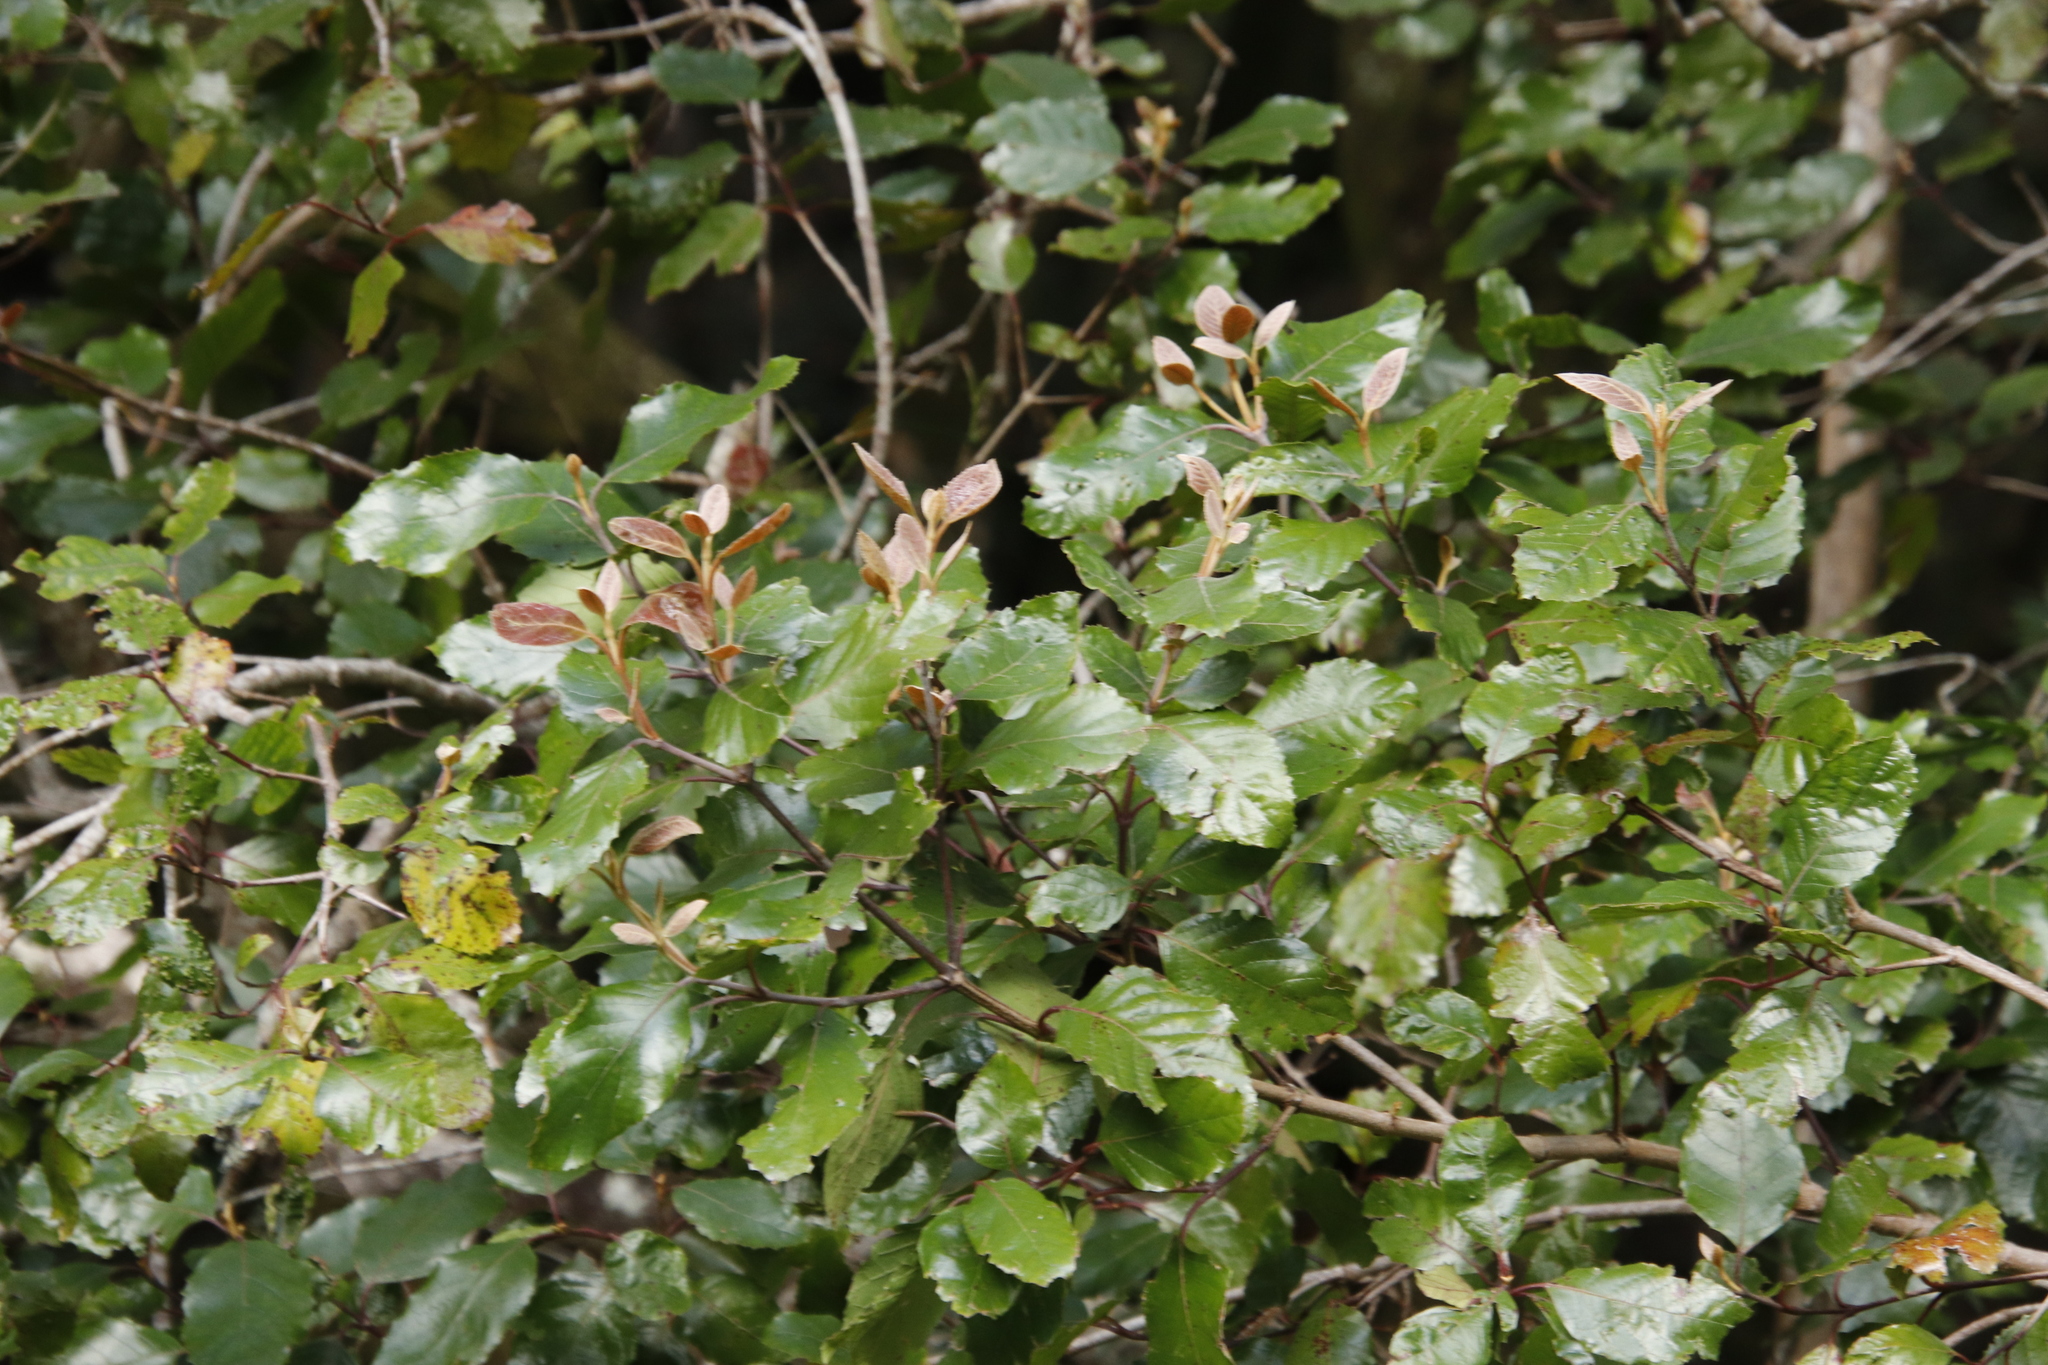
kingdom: Plantae
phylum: Tracheophyta
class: Magnoliopsida
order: Cornales
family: Curtisiaceae
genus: Curtisia
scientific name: Curtisia dentata
